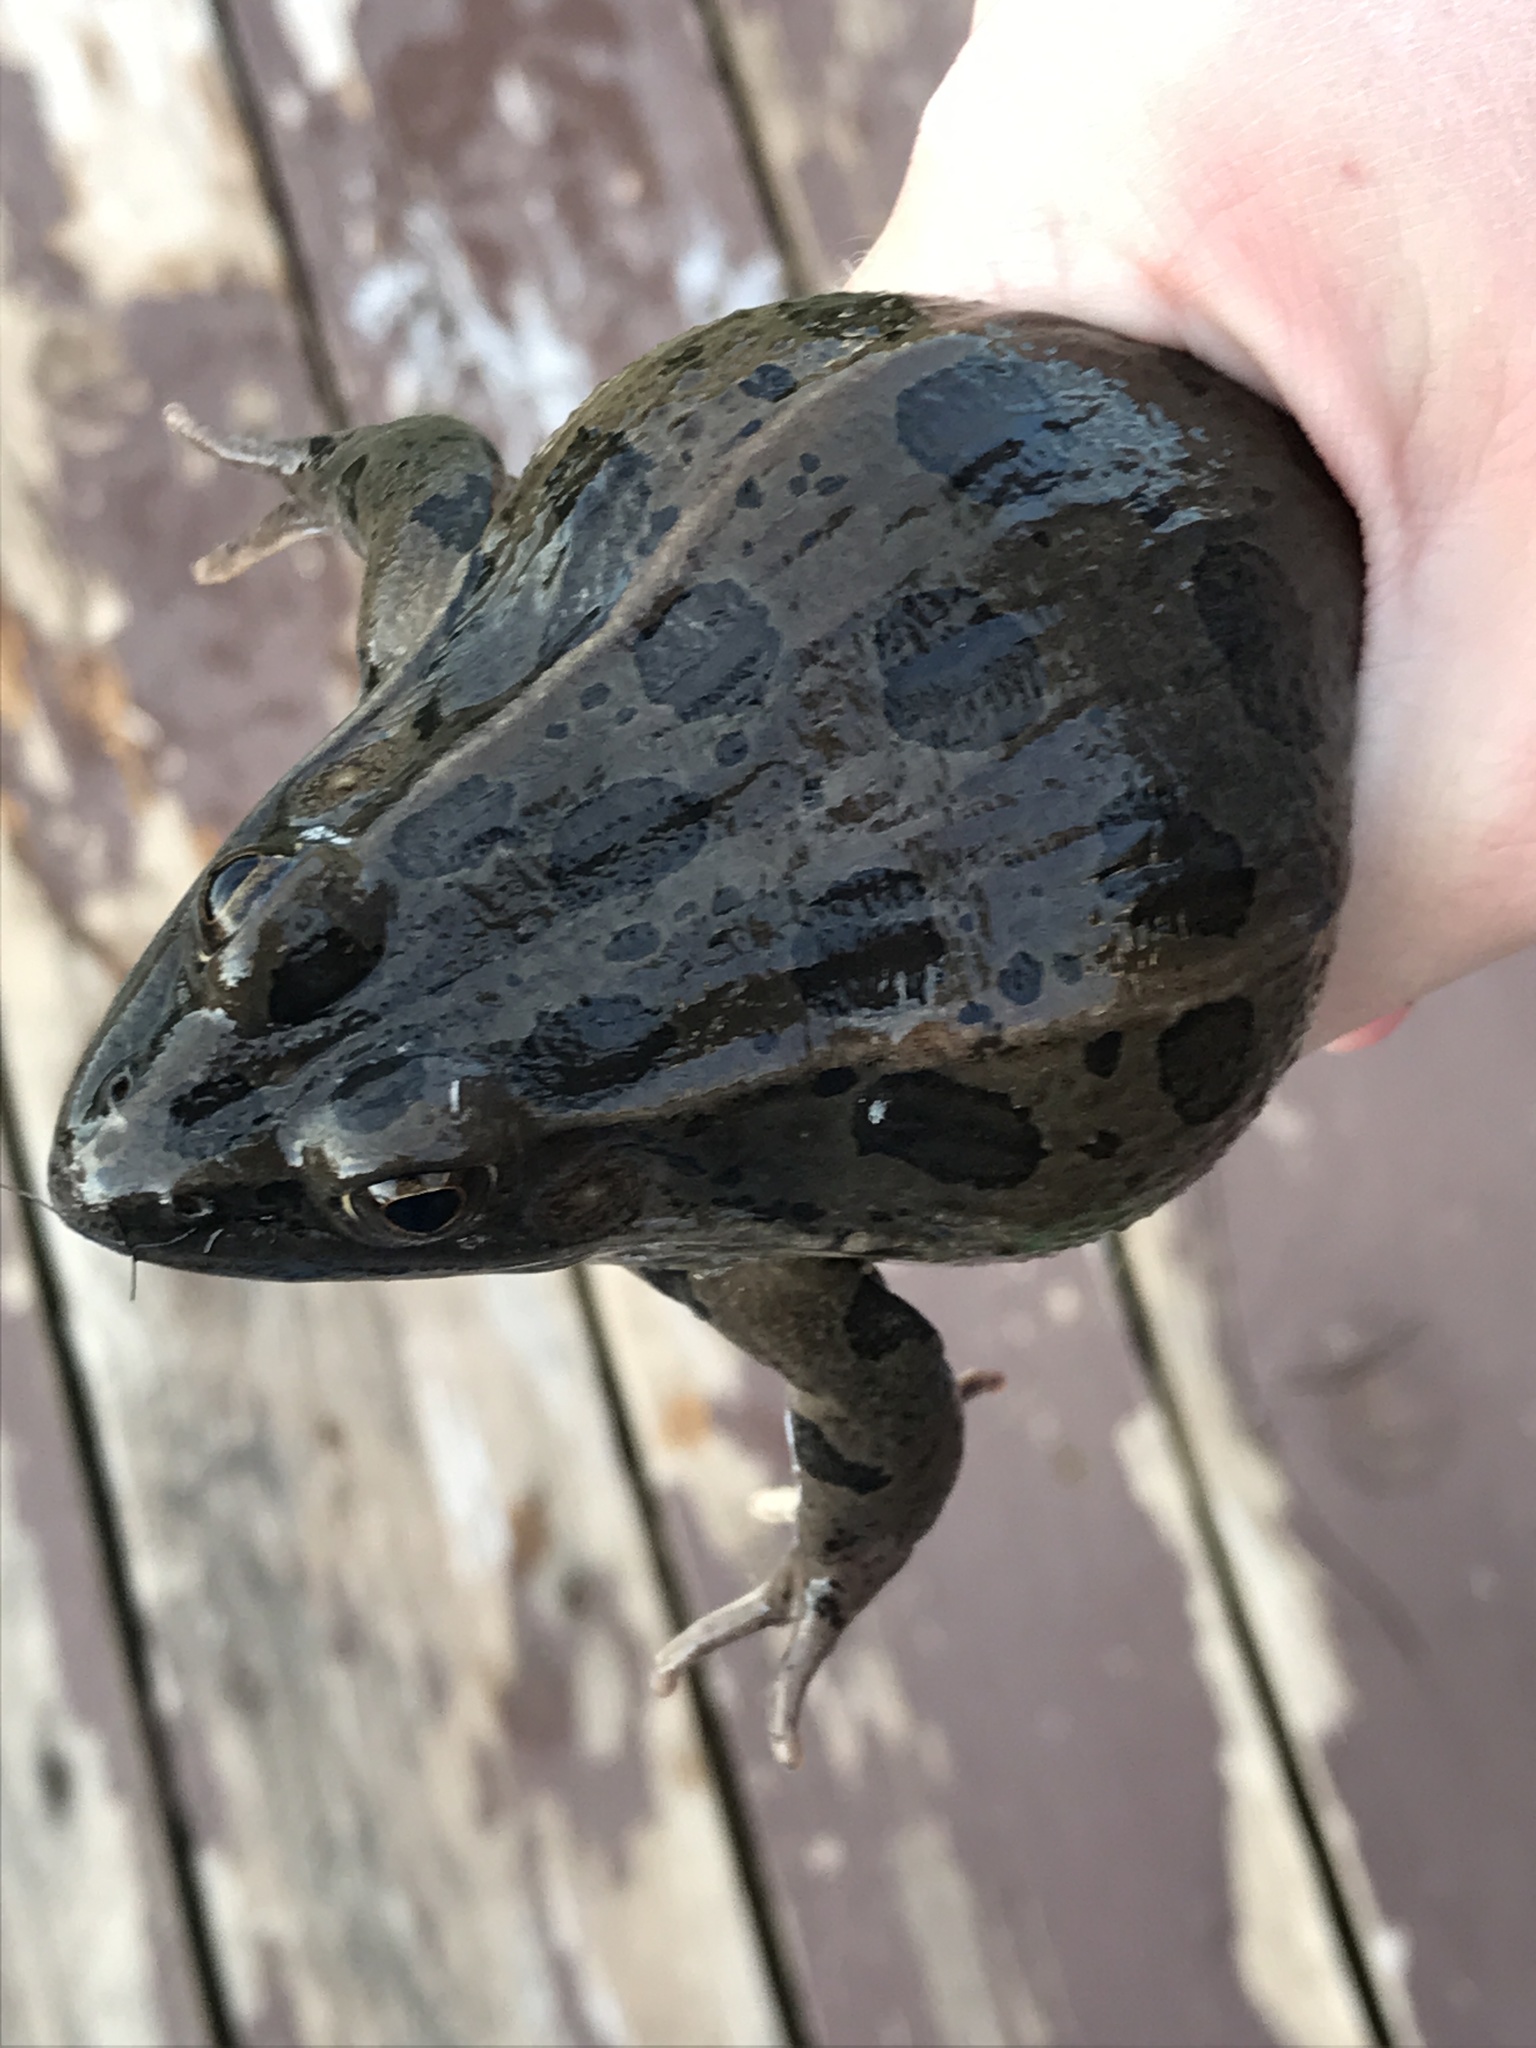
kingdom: Animalia
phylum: Chordata
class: Amphibia
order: Anura
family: Ranidae
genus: Lithobates
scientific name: Lithobates blairi
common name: Plains leopard frog
